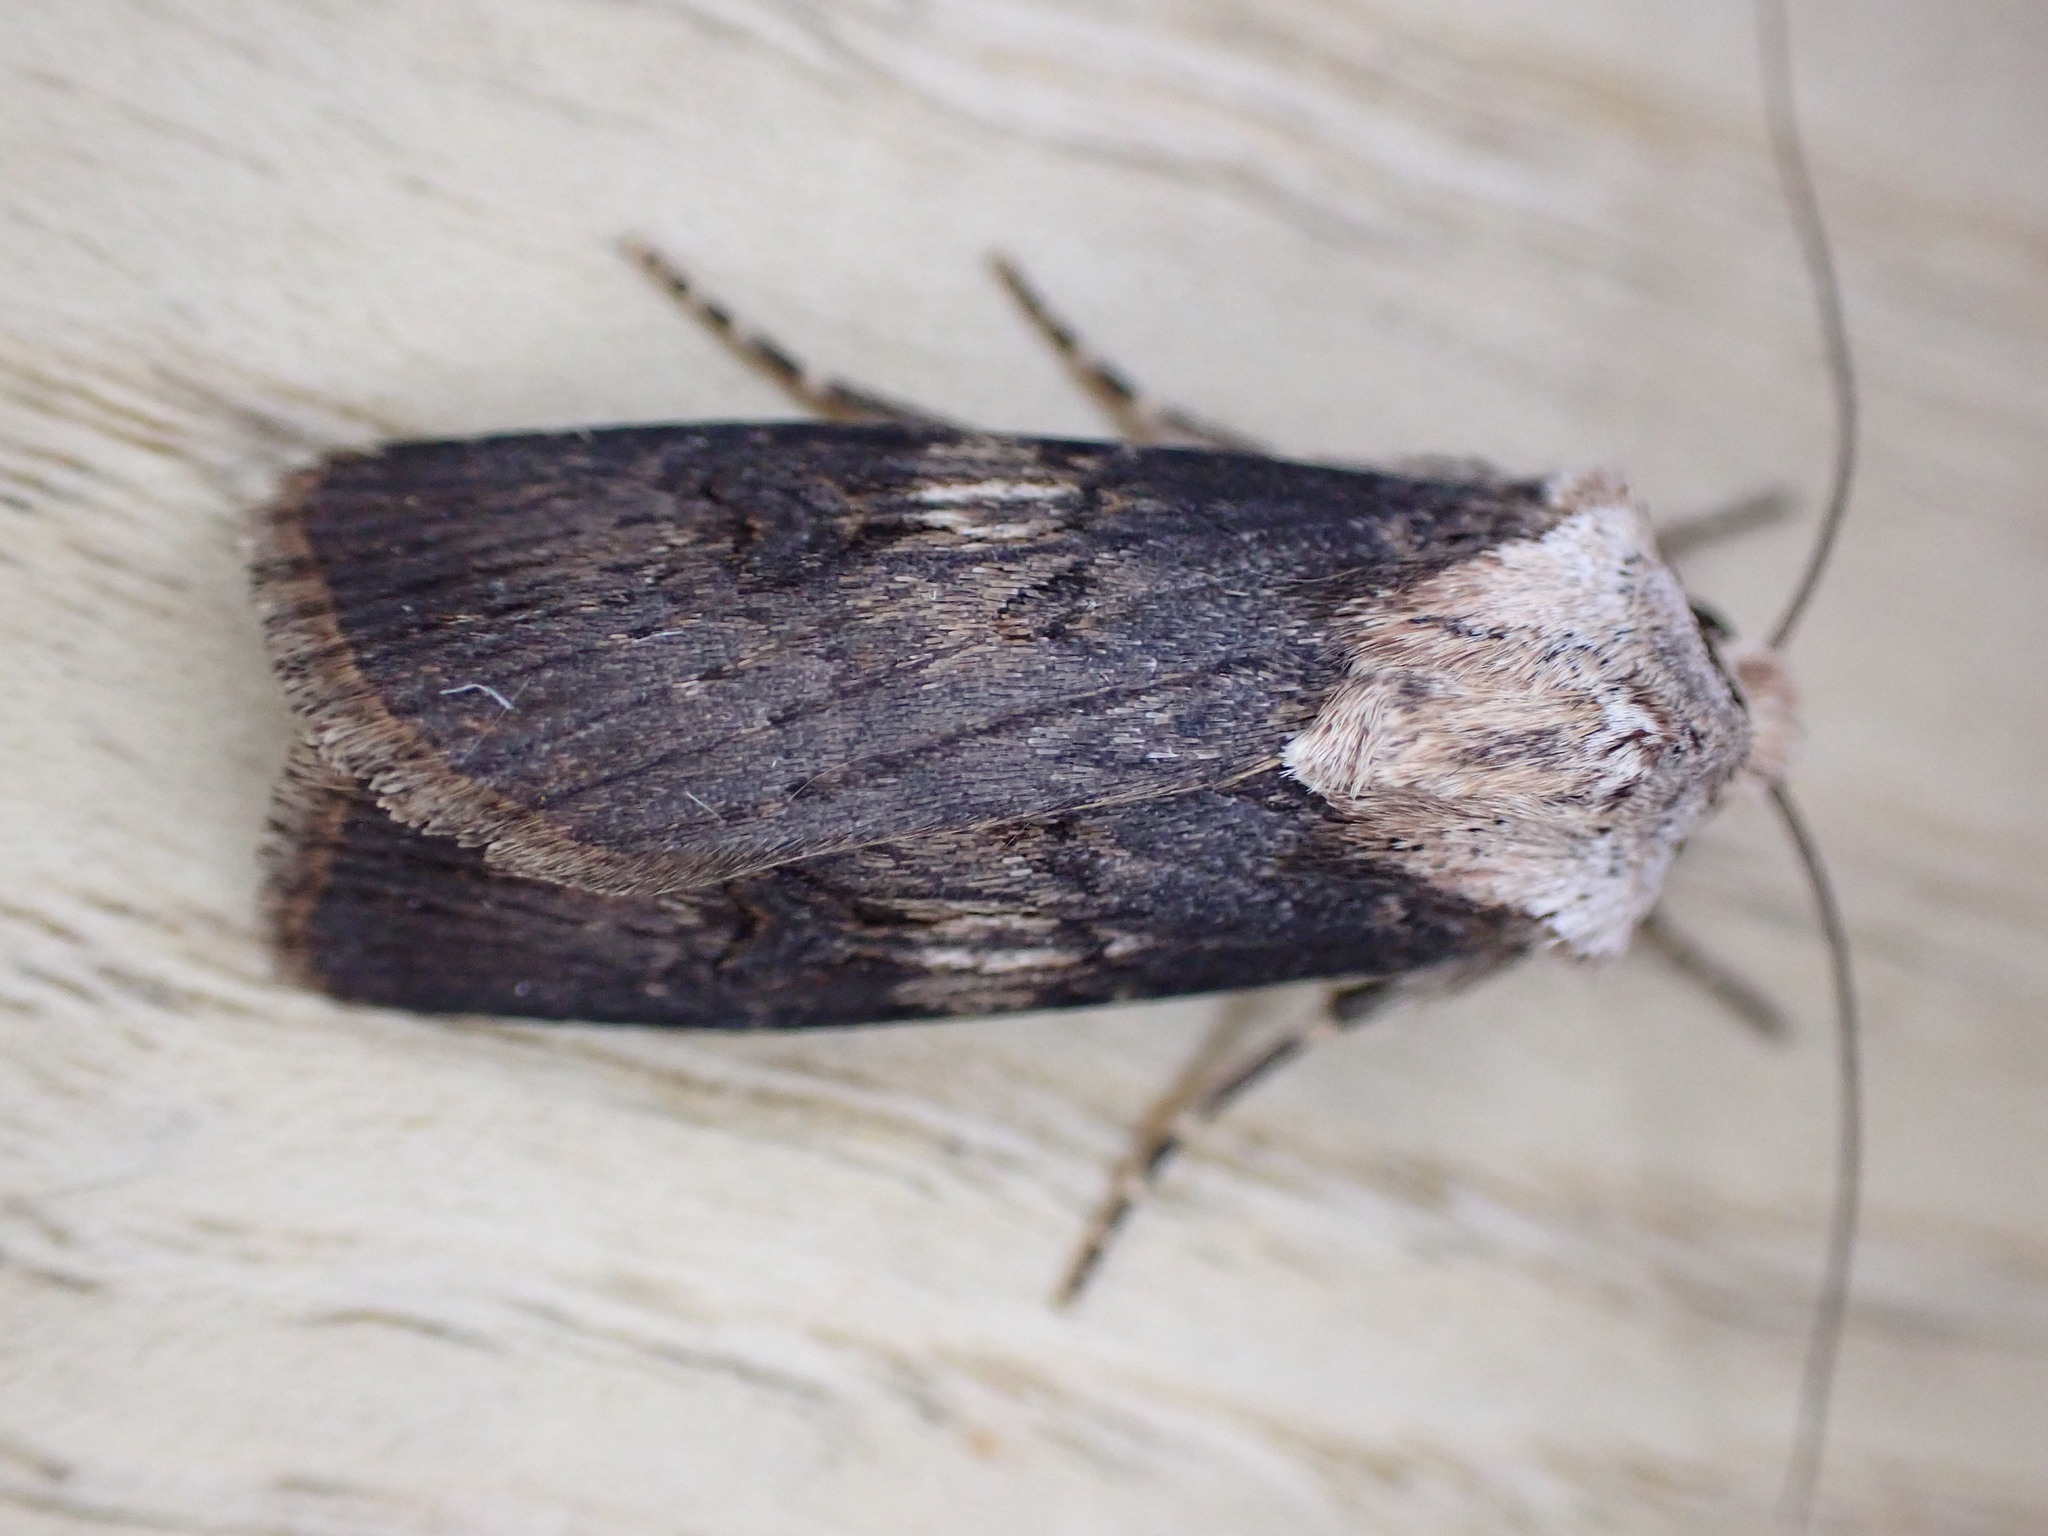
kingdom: Animalia
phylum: Arthropoda
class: Insecta
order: Lepidoptera
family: Noctuidae
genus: Agrotis
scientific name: Agrotis puta
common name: Shuttle-shaped dart
